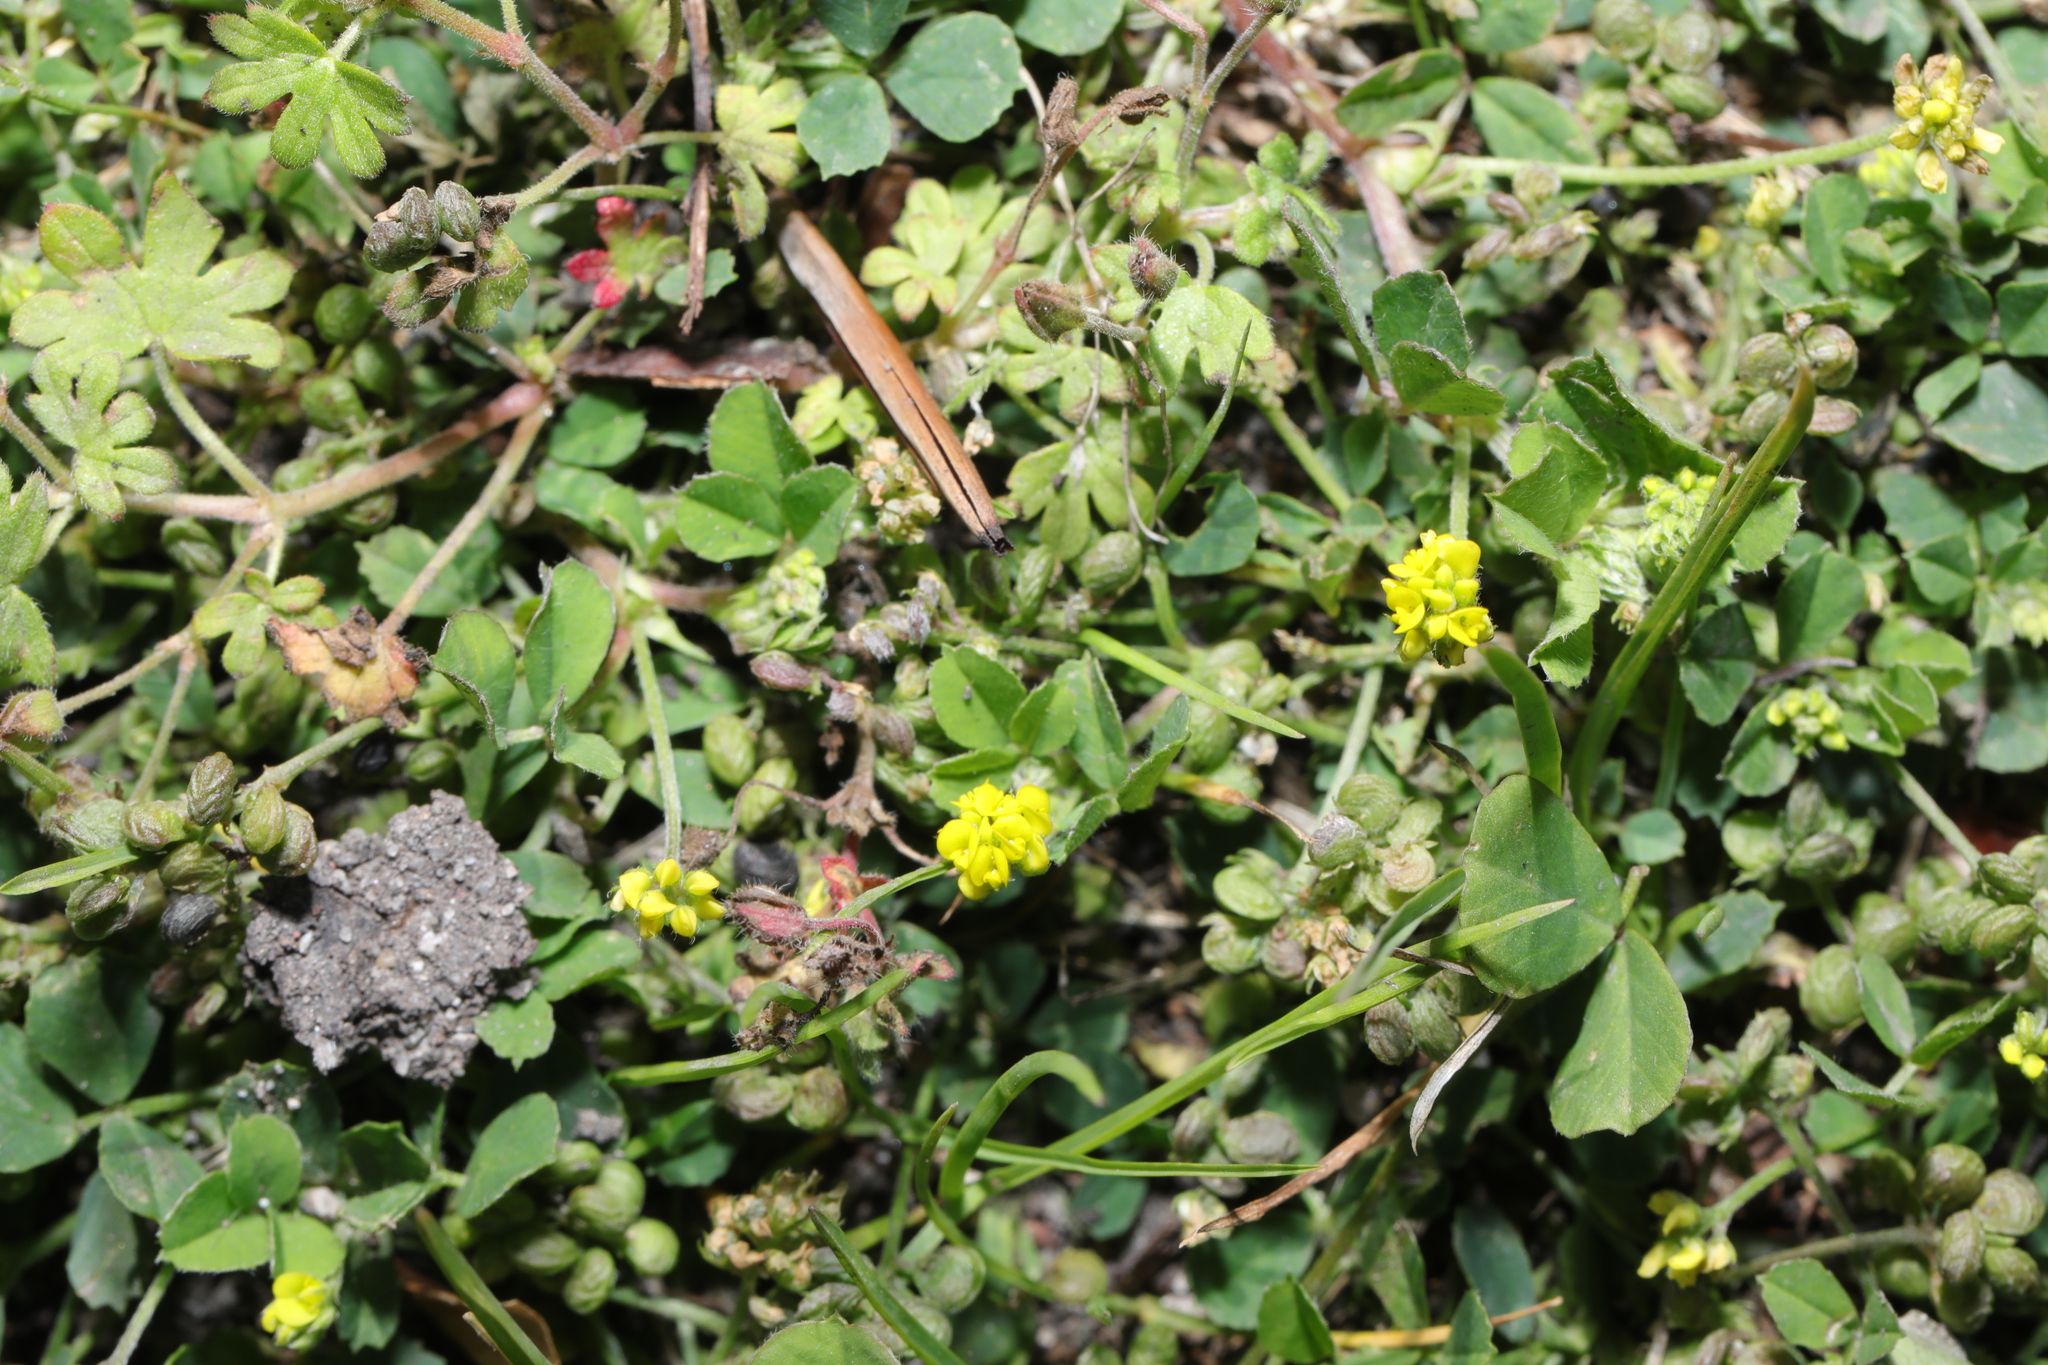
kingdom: Plantae
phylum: Tracheophyta
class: Magnoliopsida
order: Fabales
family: Fabaceae
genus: Medicago
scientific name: Medicago lupulina
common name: Black medick
